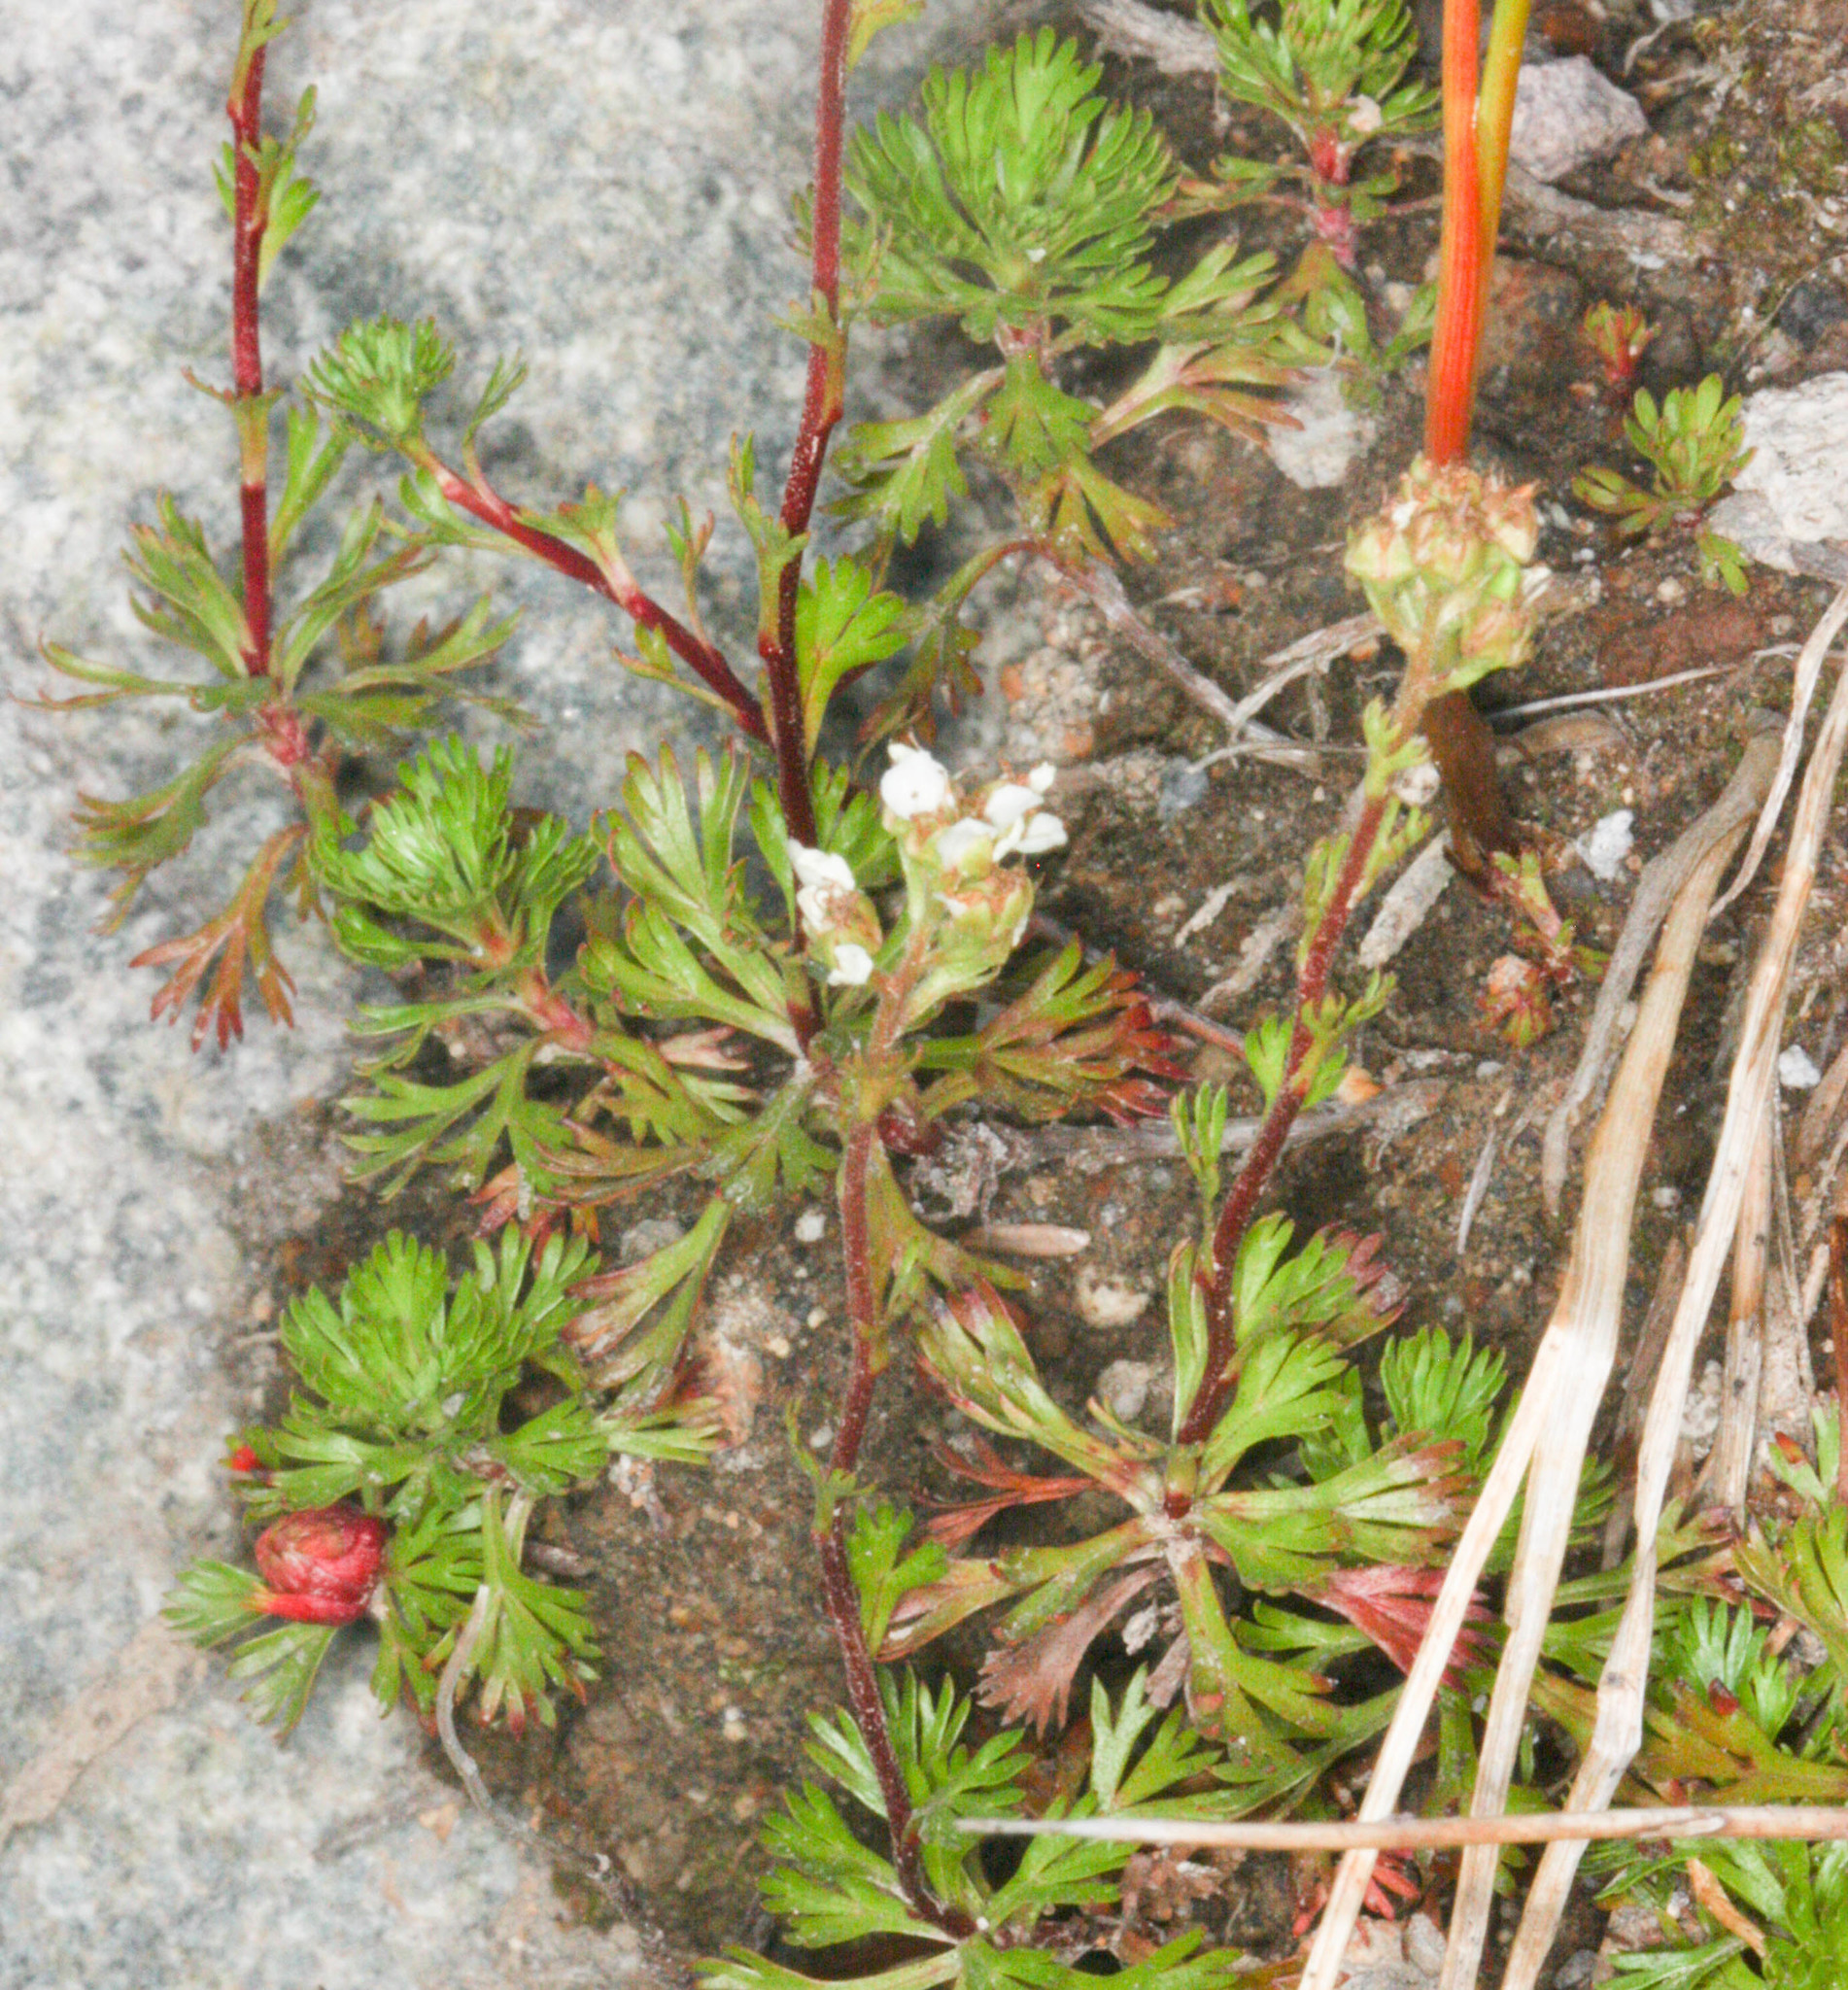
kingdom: Plantae
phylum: Tracheophyta
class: Magnoliopsida
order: Rosales
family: Rosaceae
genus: Luetkea
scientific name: Luetkea pectinata
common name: Partridgefoot
